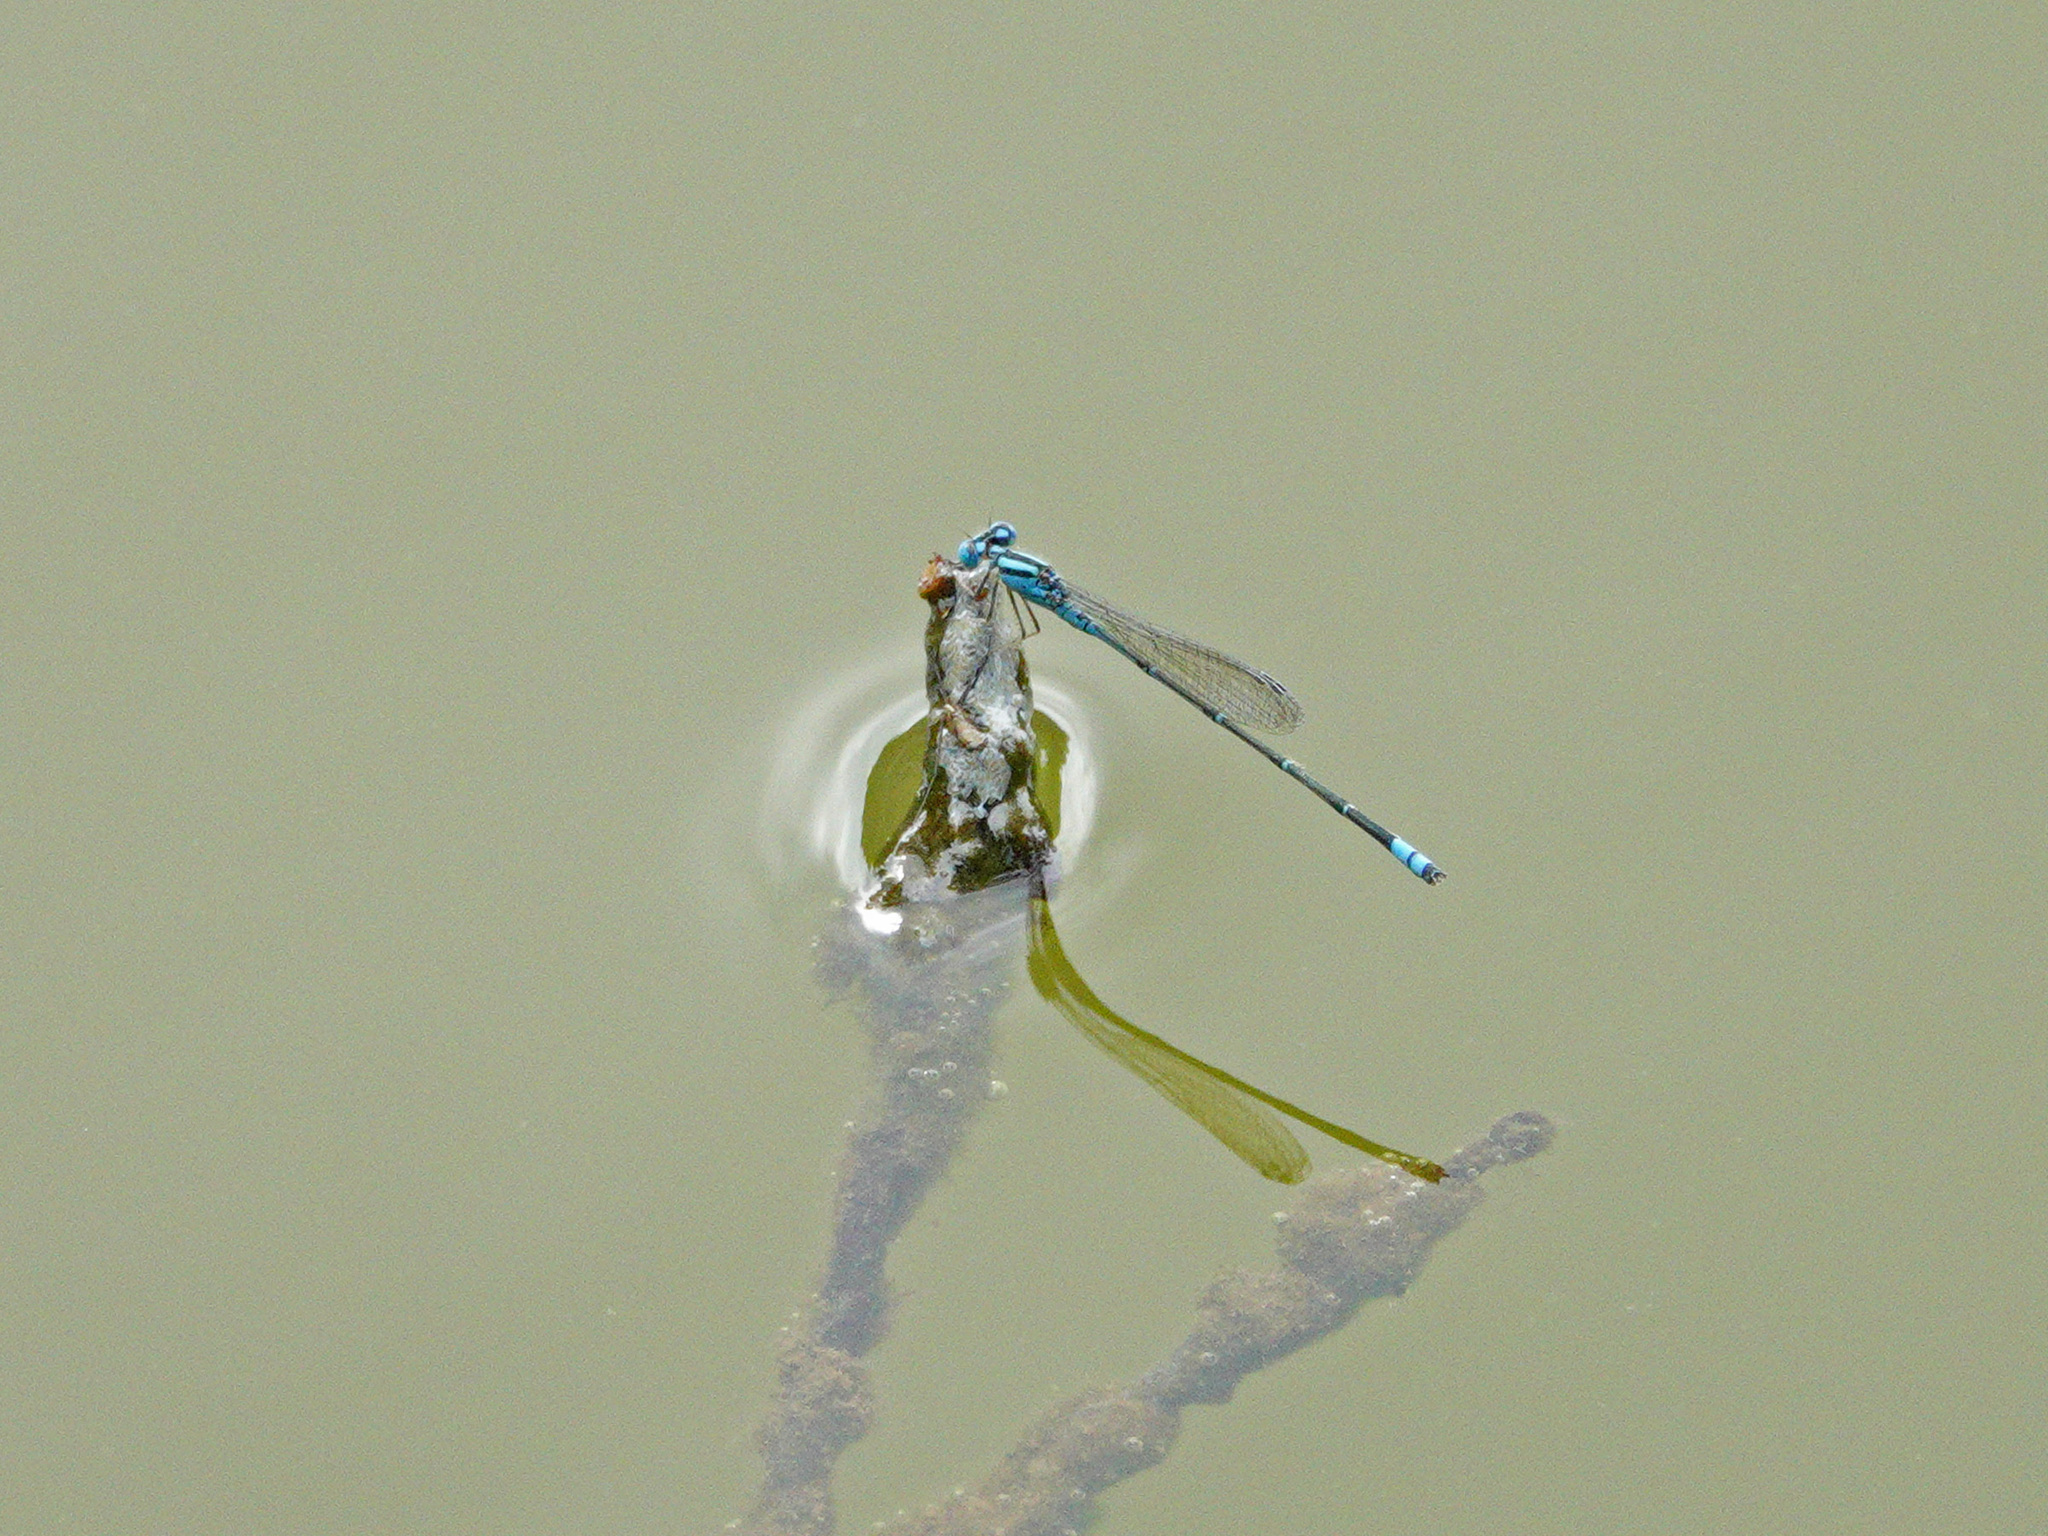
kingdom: Animalia
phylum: Arthropoda
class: Insecta
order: Odonata
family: Coenagrionidae
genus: Pseudagrion
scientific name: Pseudagrion microcephalum
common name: Blue riverdamsel
